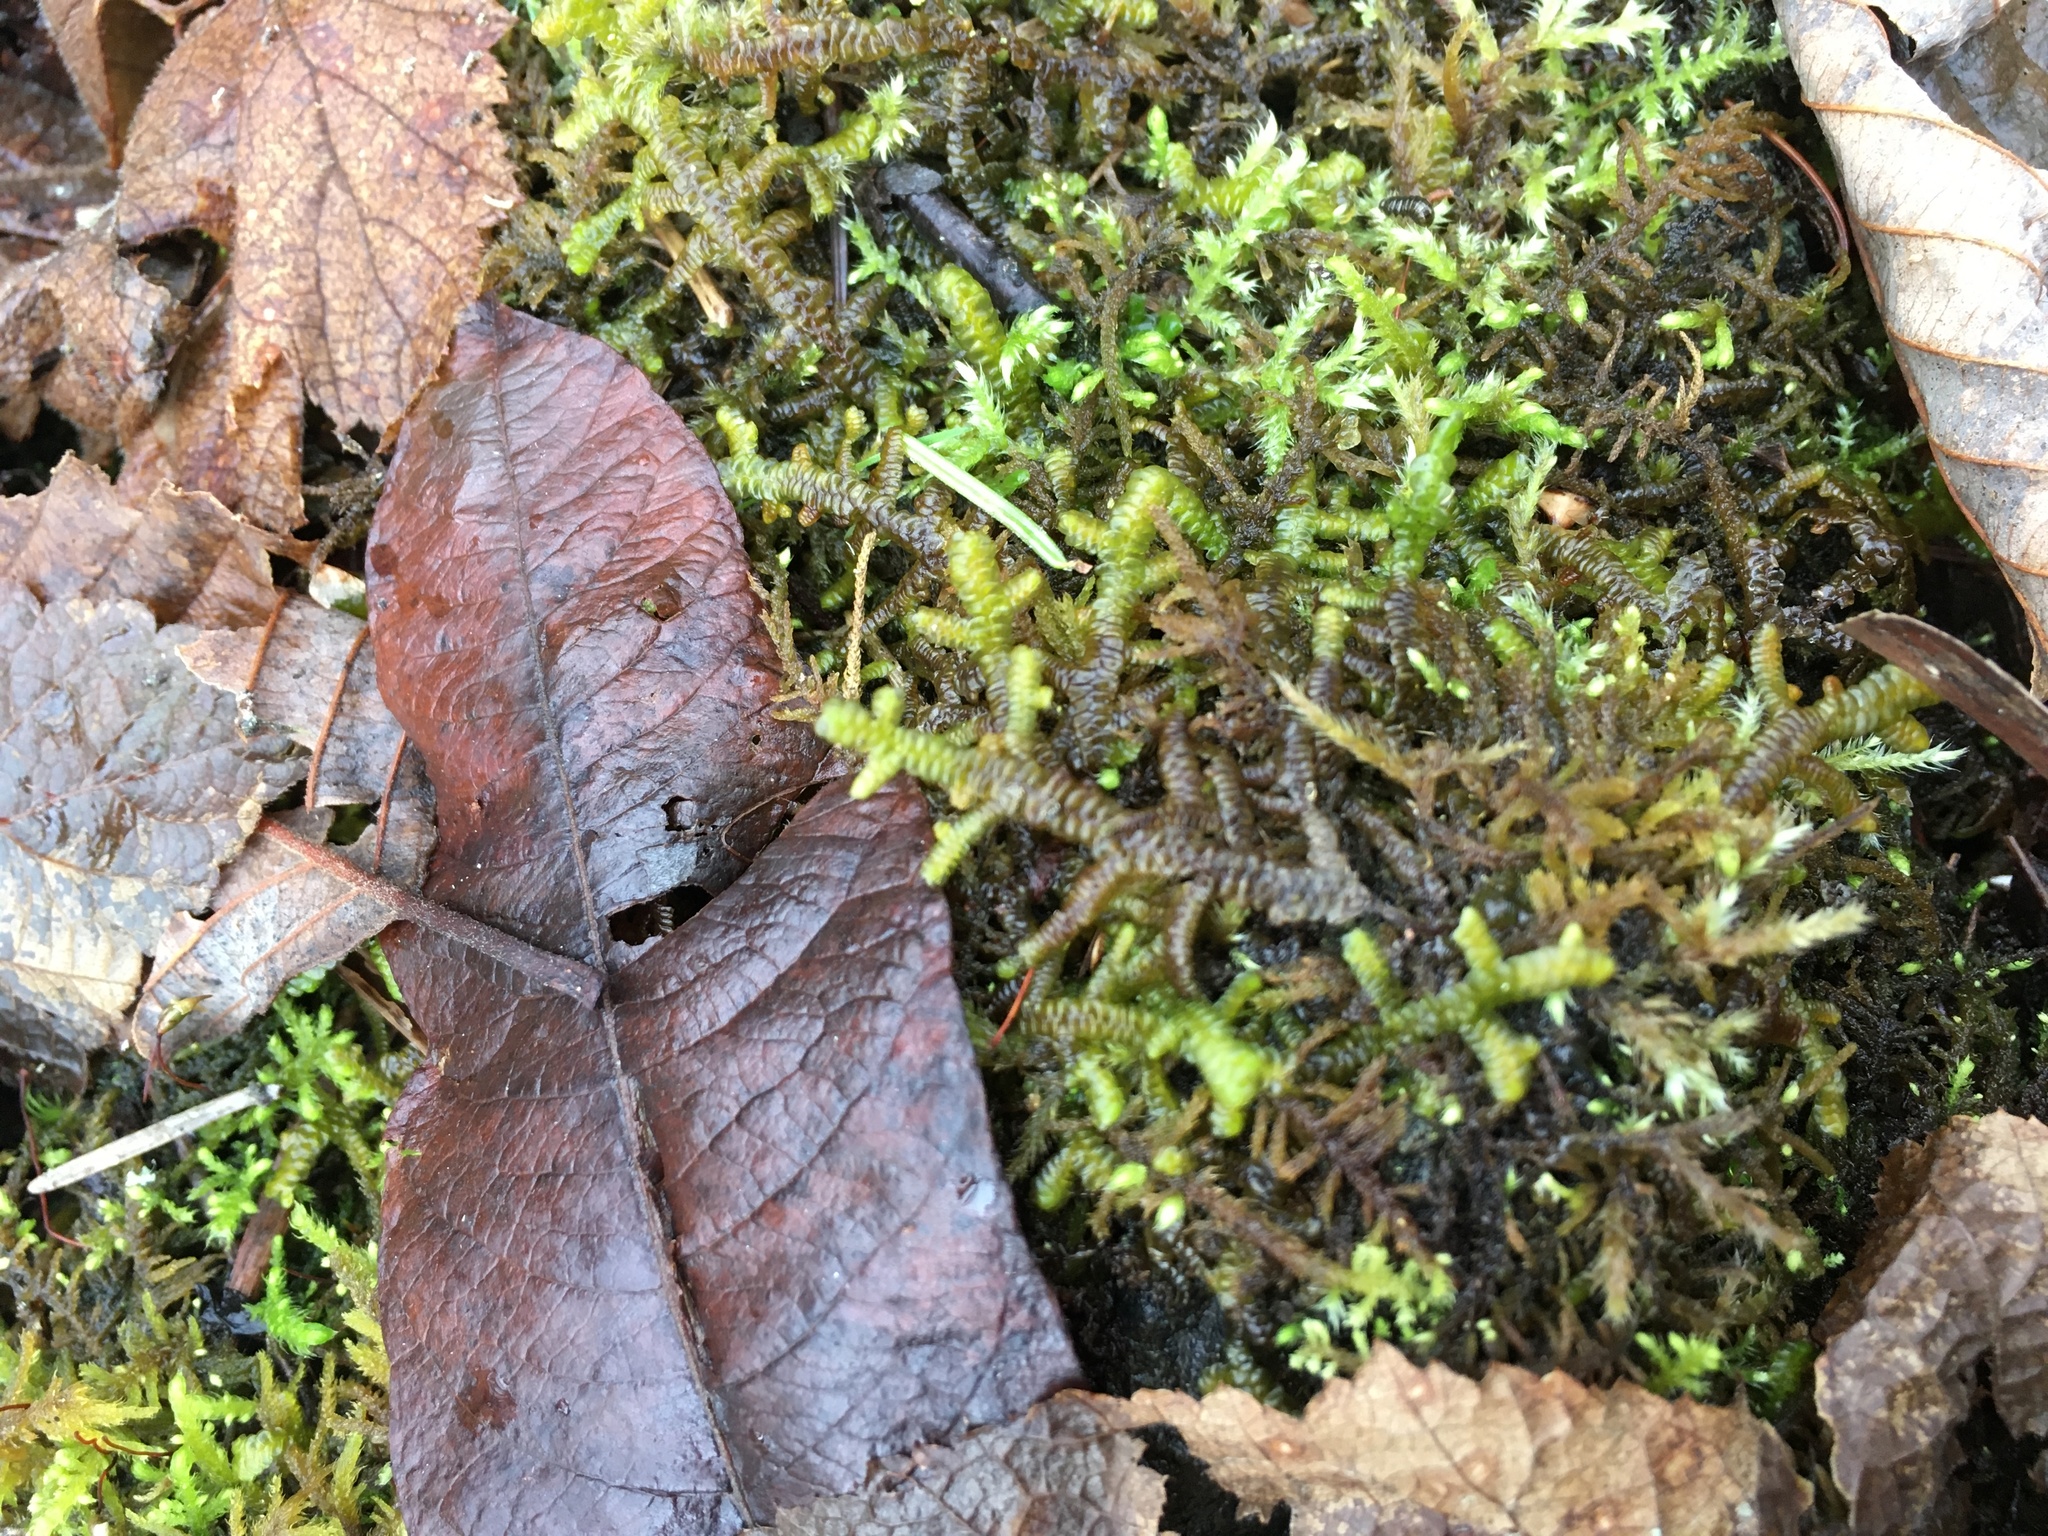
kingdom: Plantae
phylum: Marchantiophyta
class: Jungermanniopsida
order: Porellales
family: Porellaceae
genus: Porella
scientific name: Porella navicularis
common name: Tree ruffle liverwort
